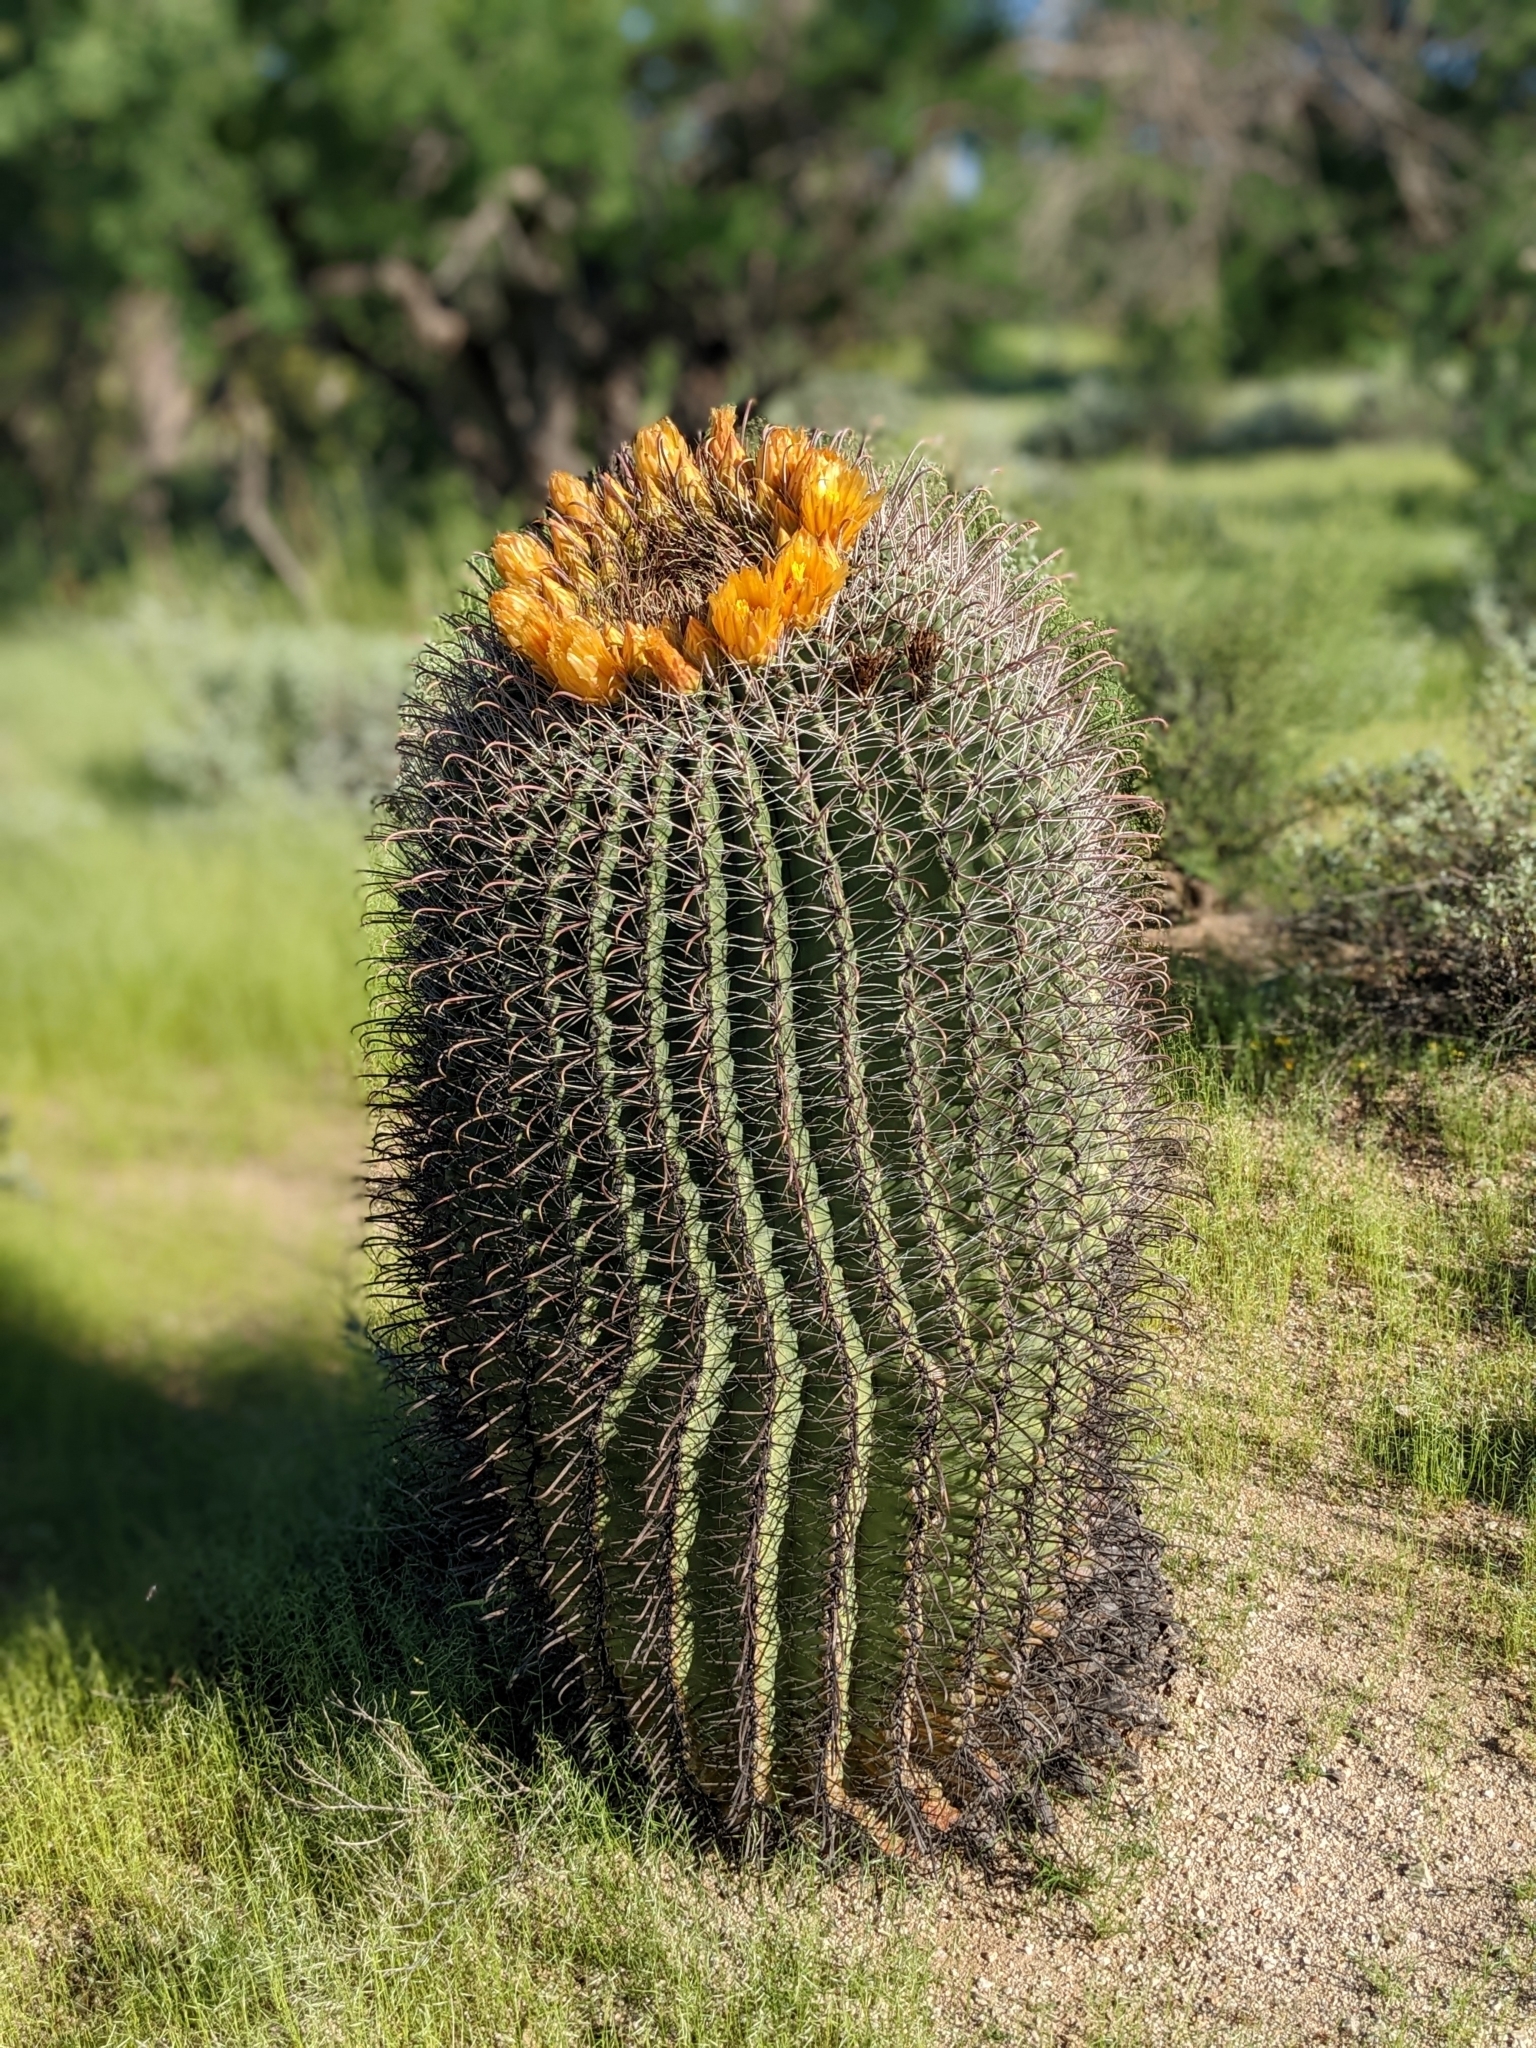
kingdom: Plantae
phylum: Tracheophyta
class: Magnoliopsida
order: Caryophyllales
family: Cactaceae
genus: Ferocactus
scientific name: Ferocactus wislizeni
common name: Candy barrel cactus
